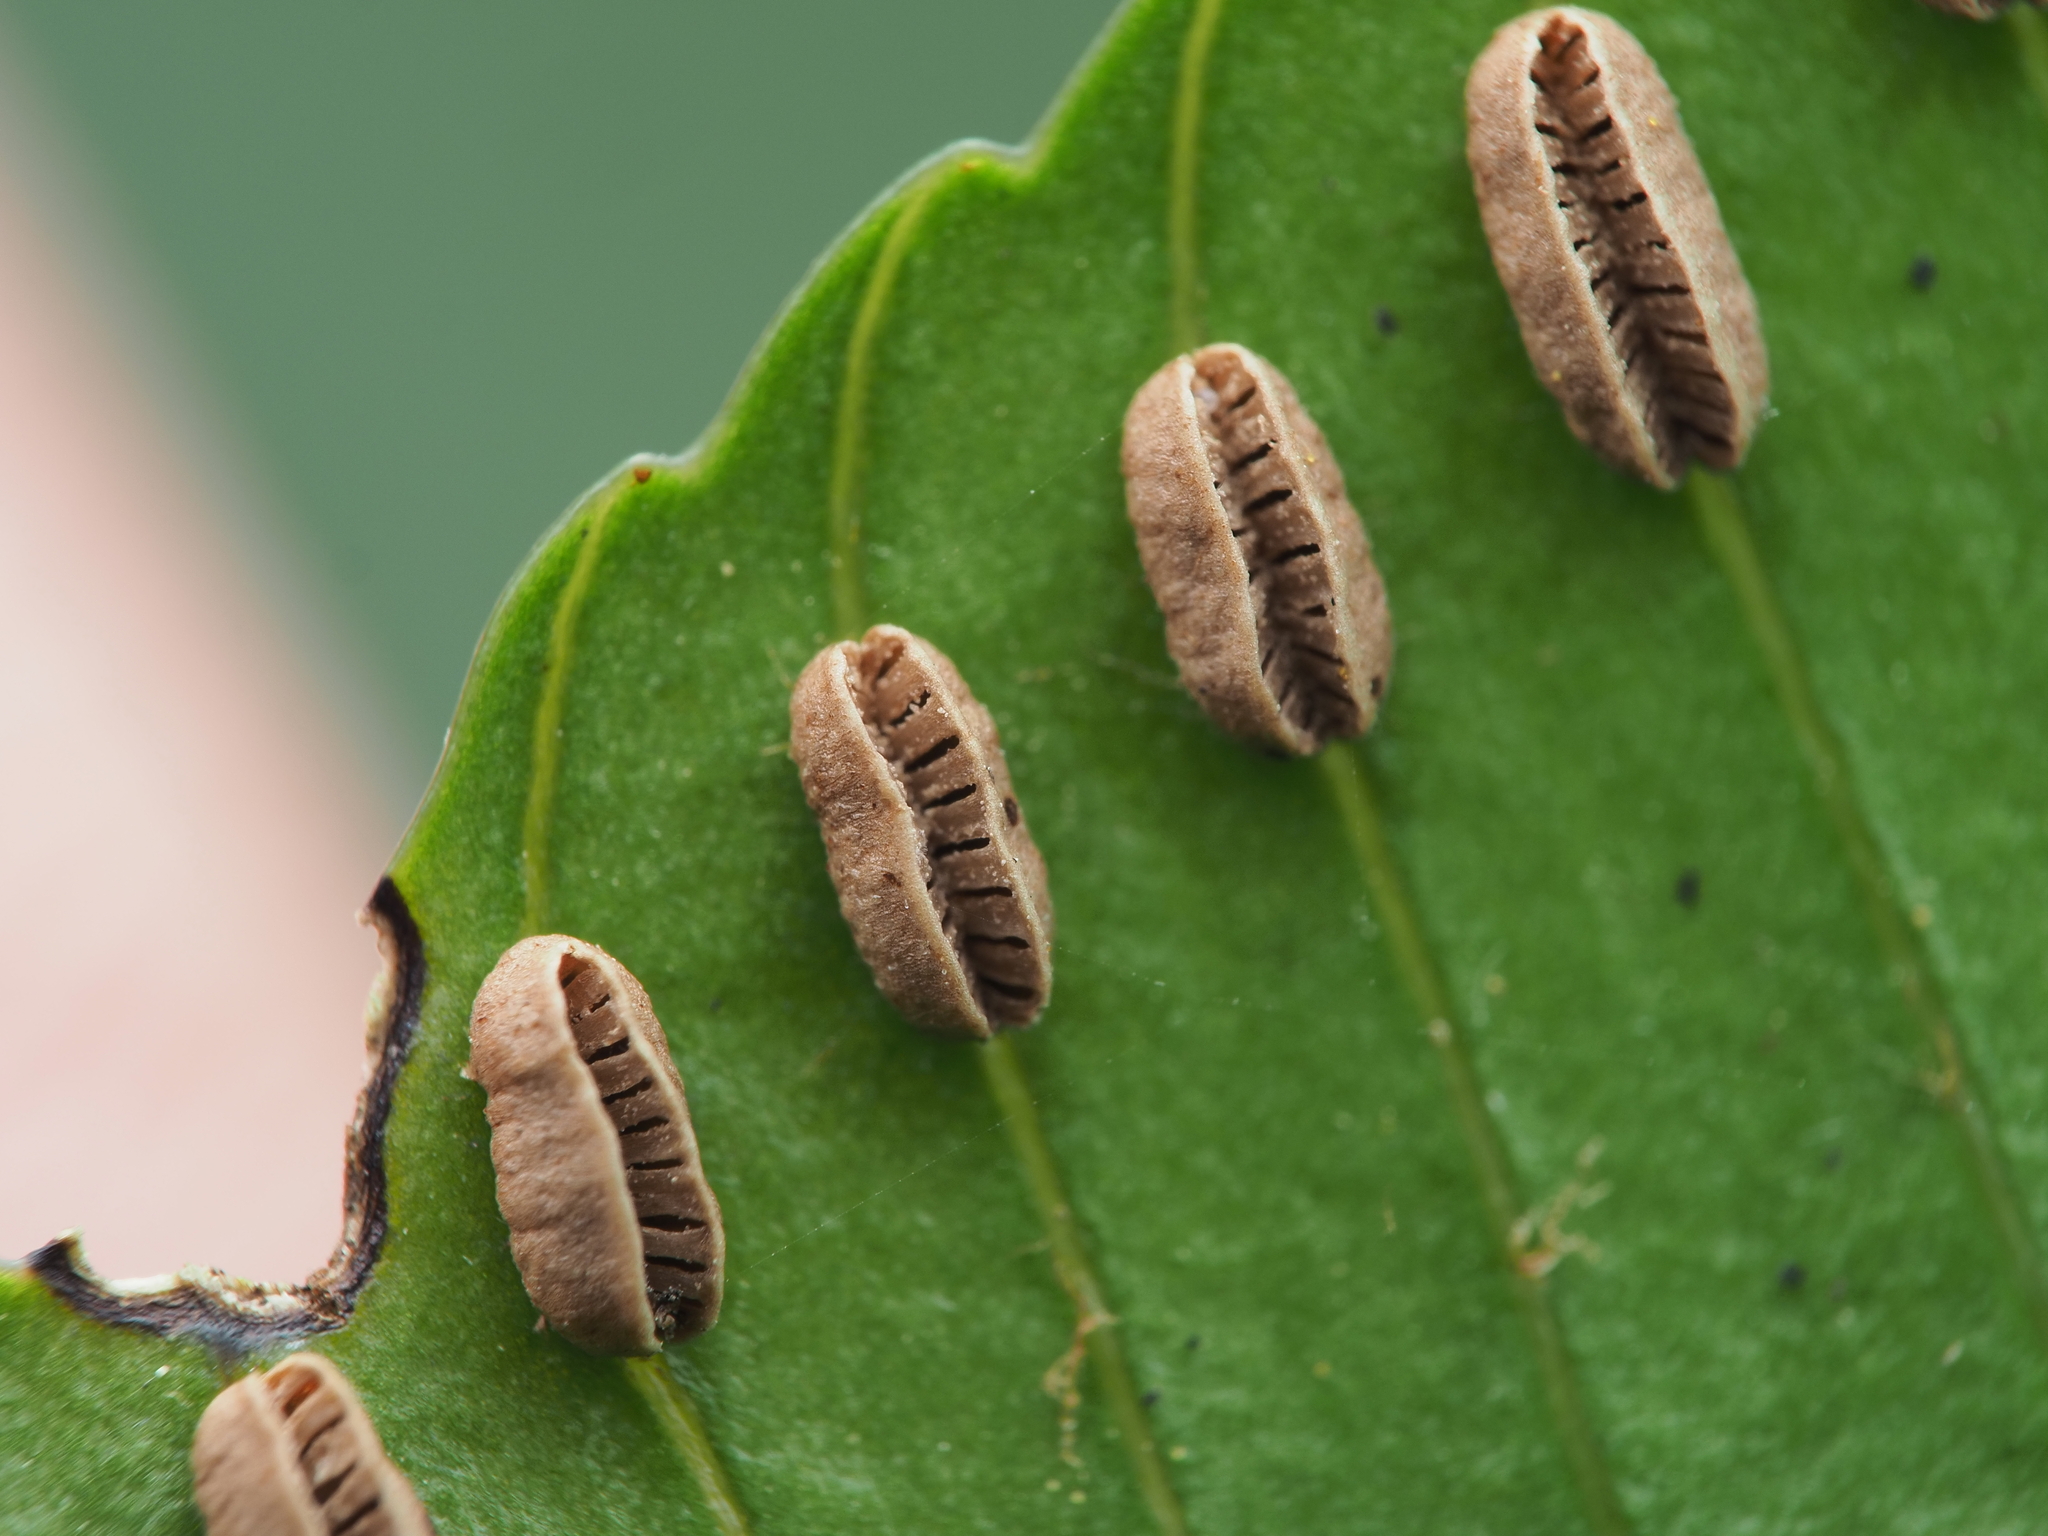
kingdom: Plantae
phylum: Tracheophyta
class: Polypodiopsida
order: Marattiales
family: Marattiaceae
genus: Ptisana
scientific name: Ptisana salicina
